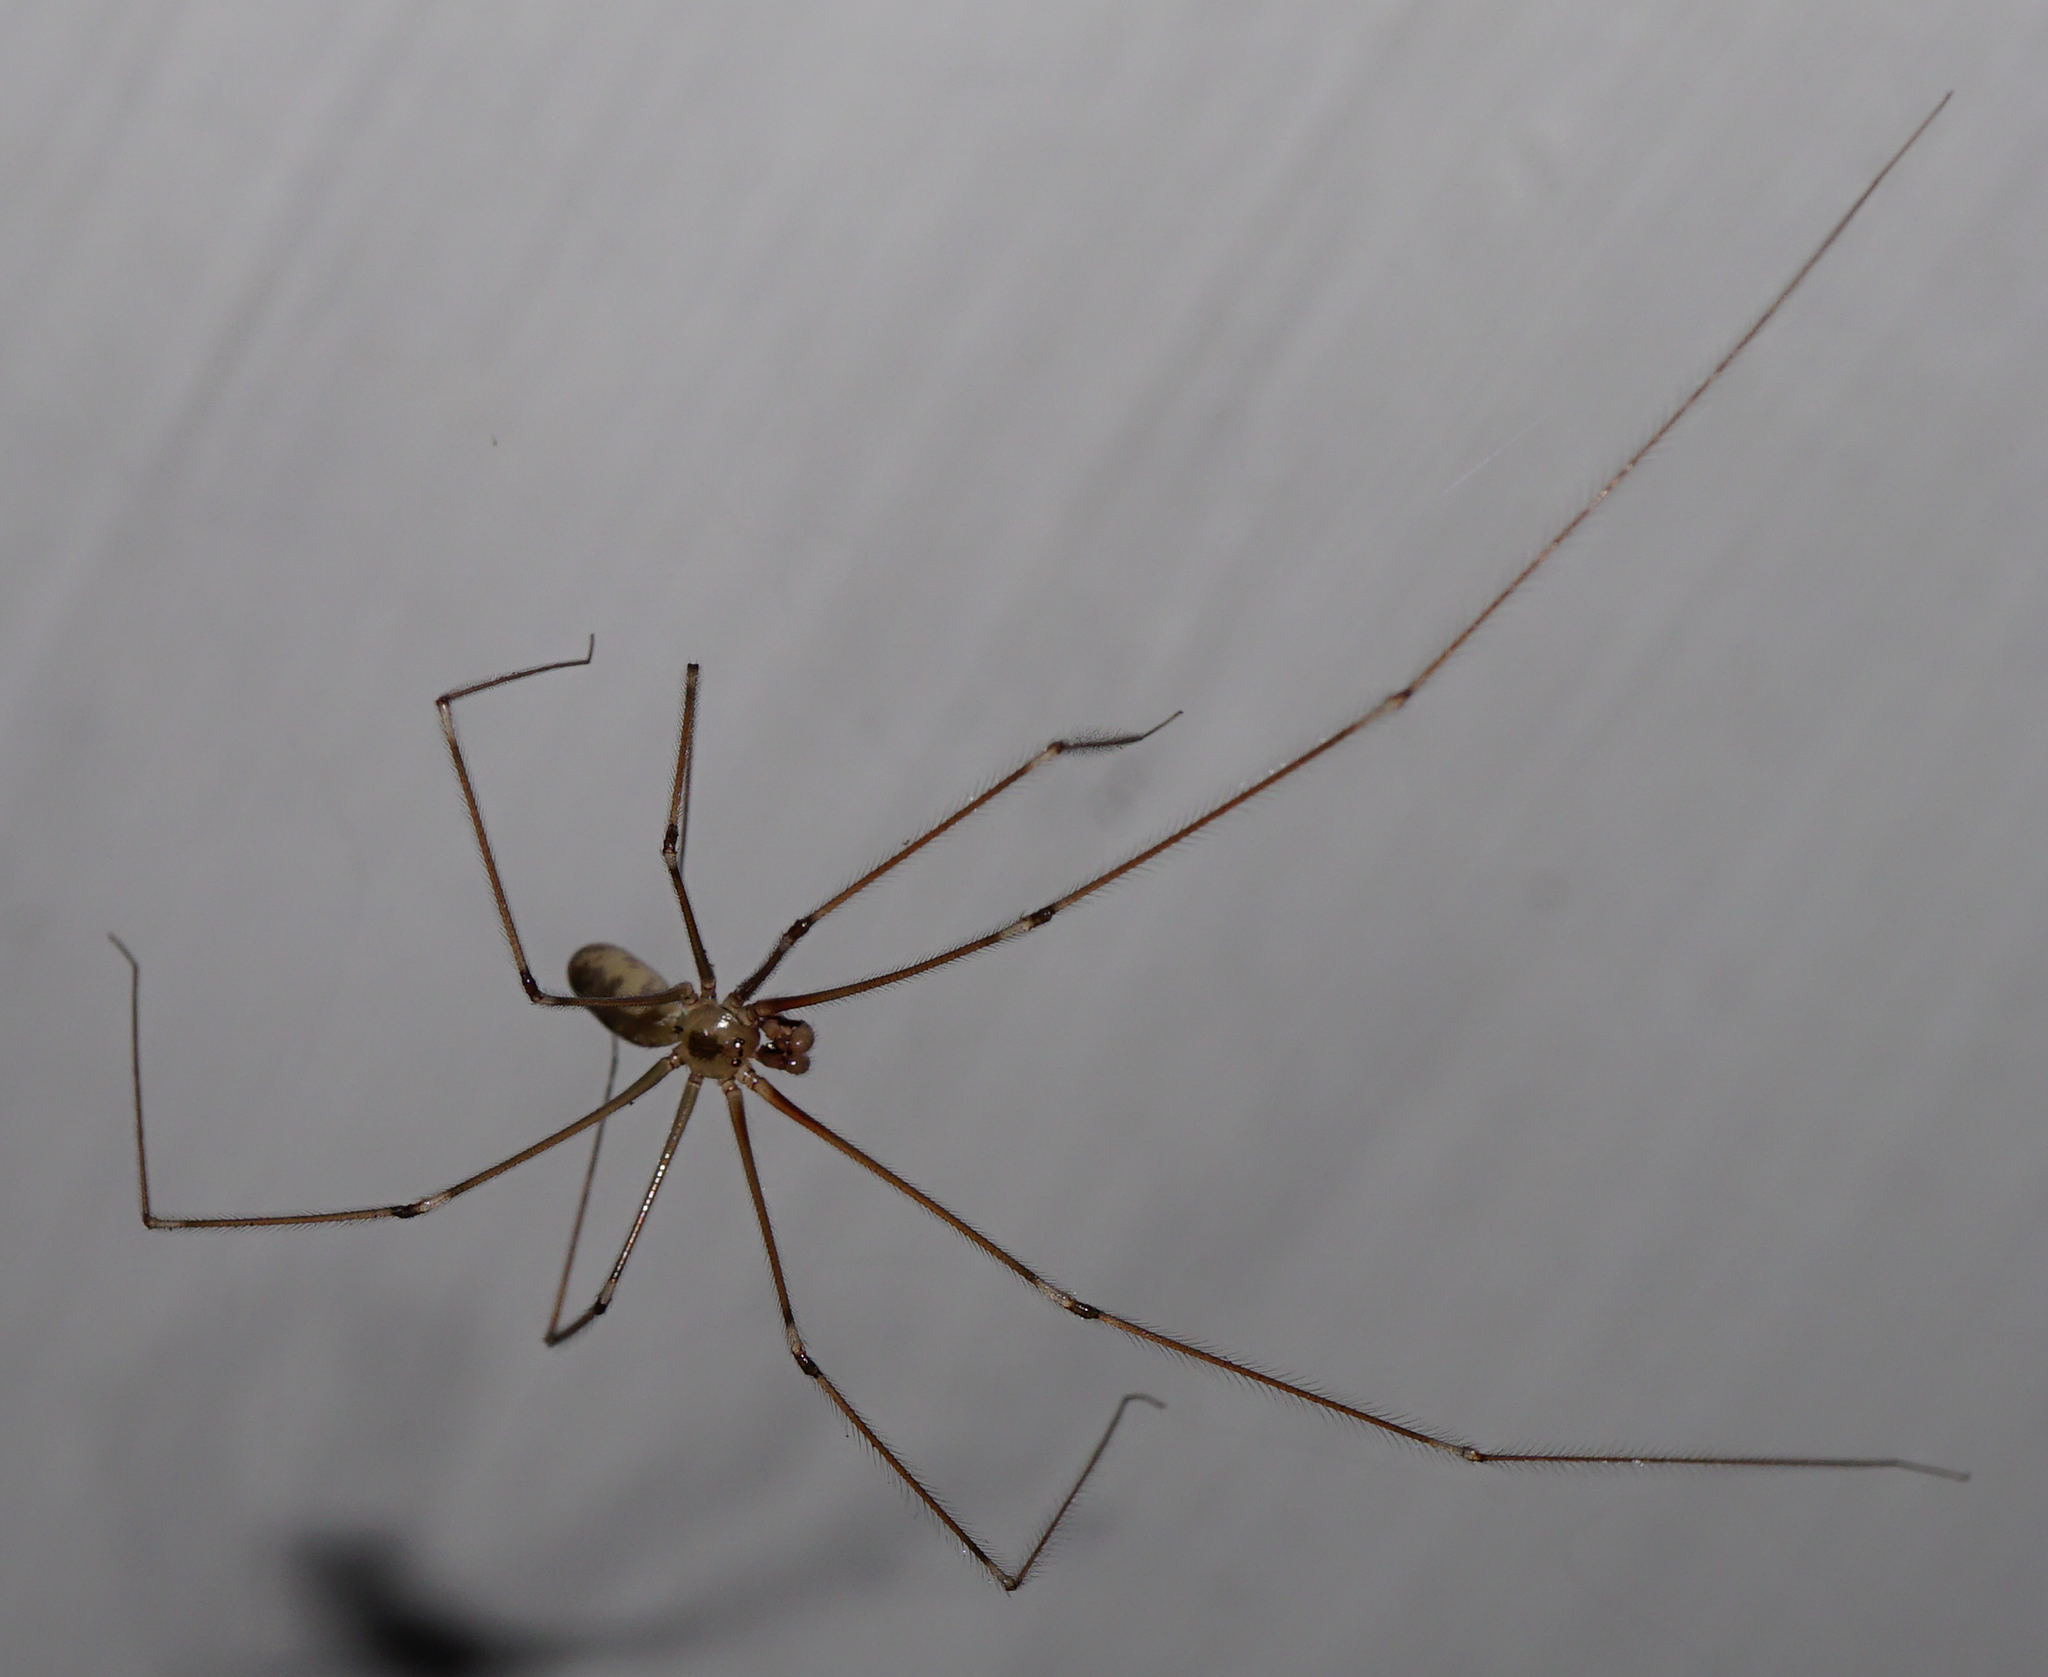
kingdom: Animalia
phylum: Arthropoda
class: Arachnida
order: Araneae
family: Pholcidae
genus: Pholcus
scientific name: Pholcus phalangioides
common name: Longbodied cellar spider
